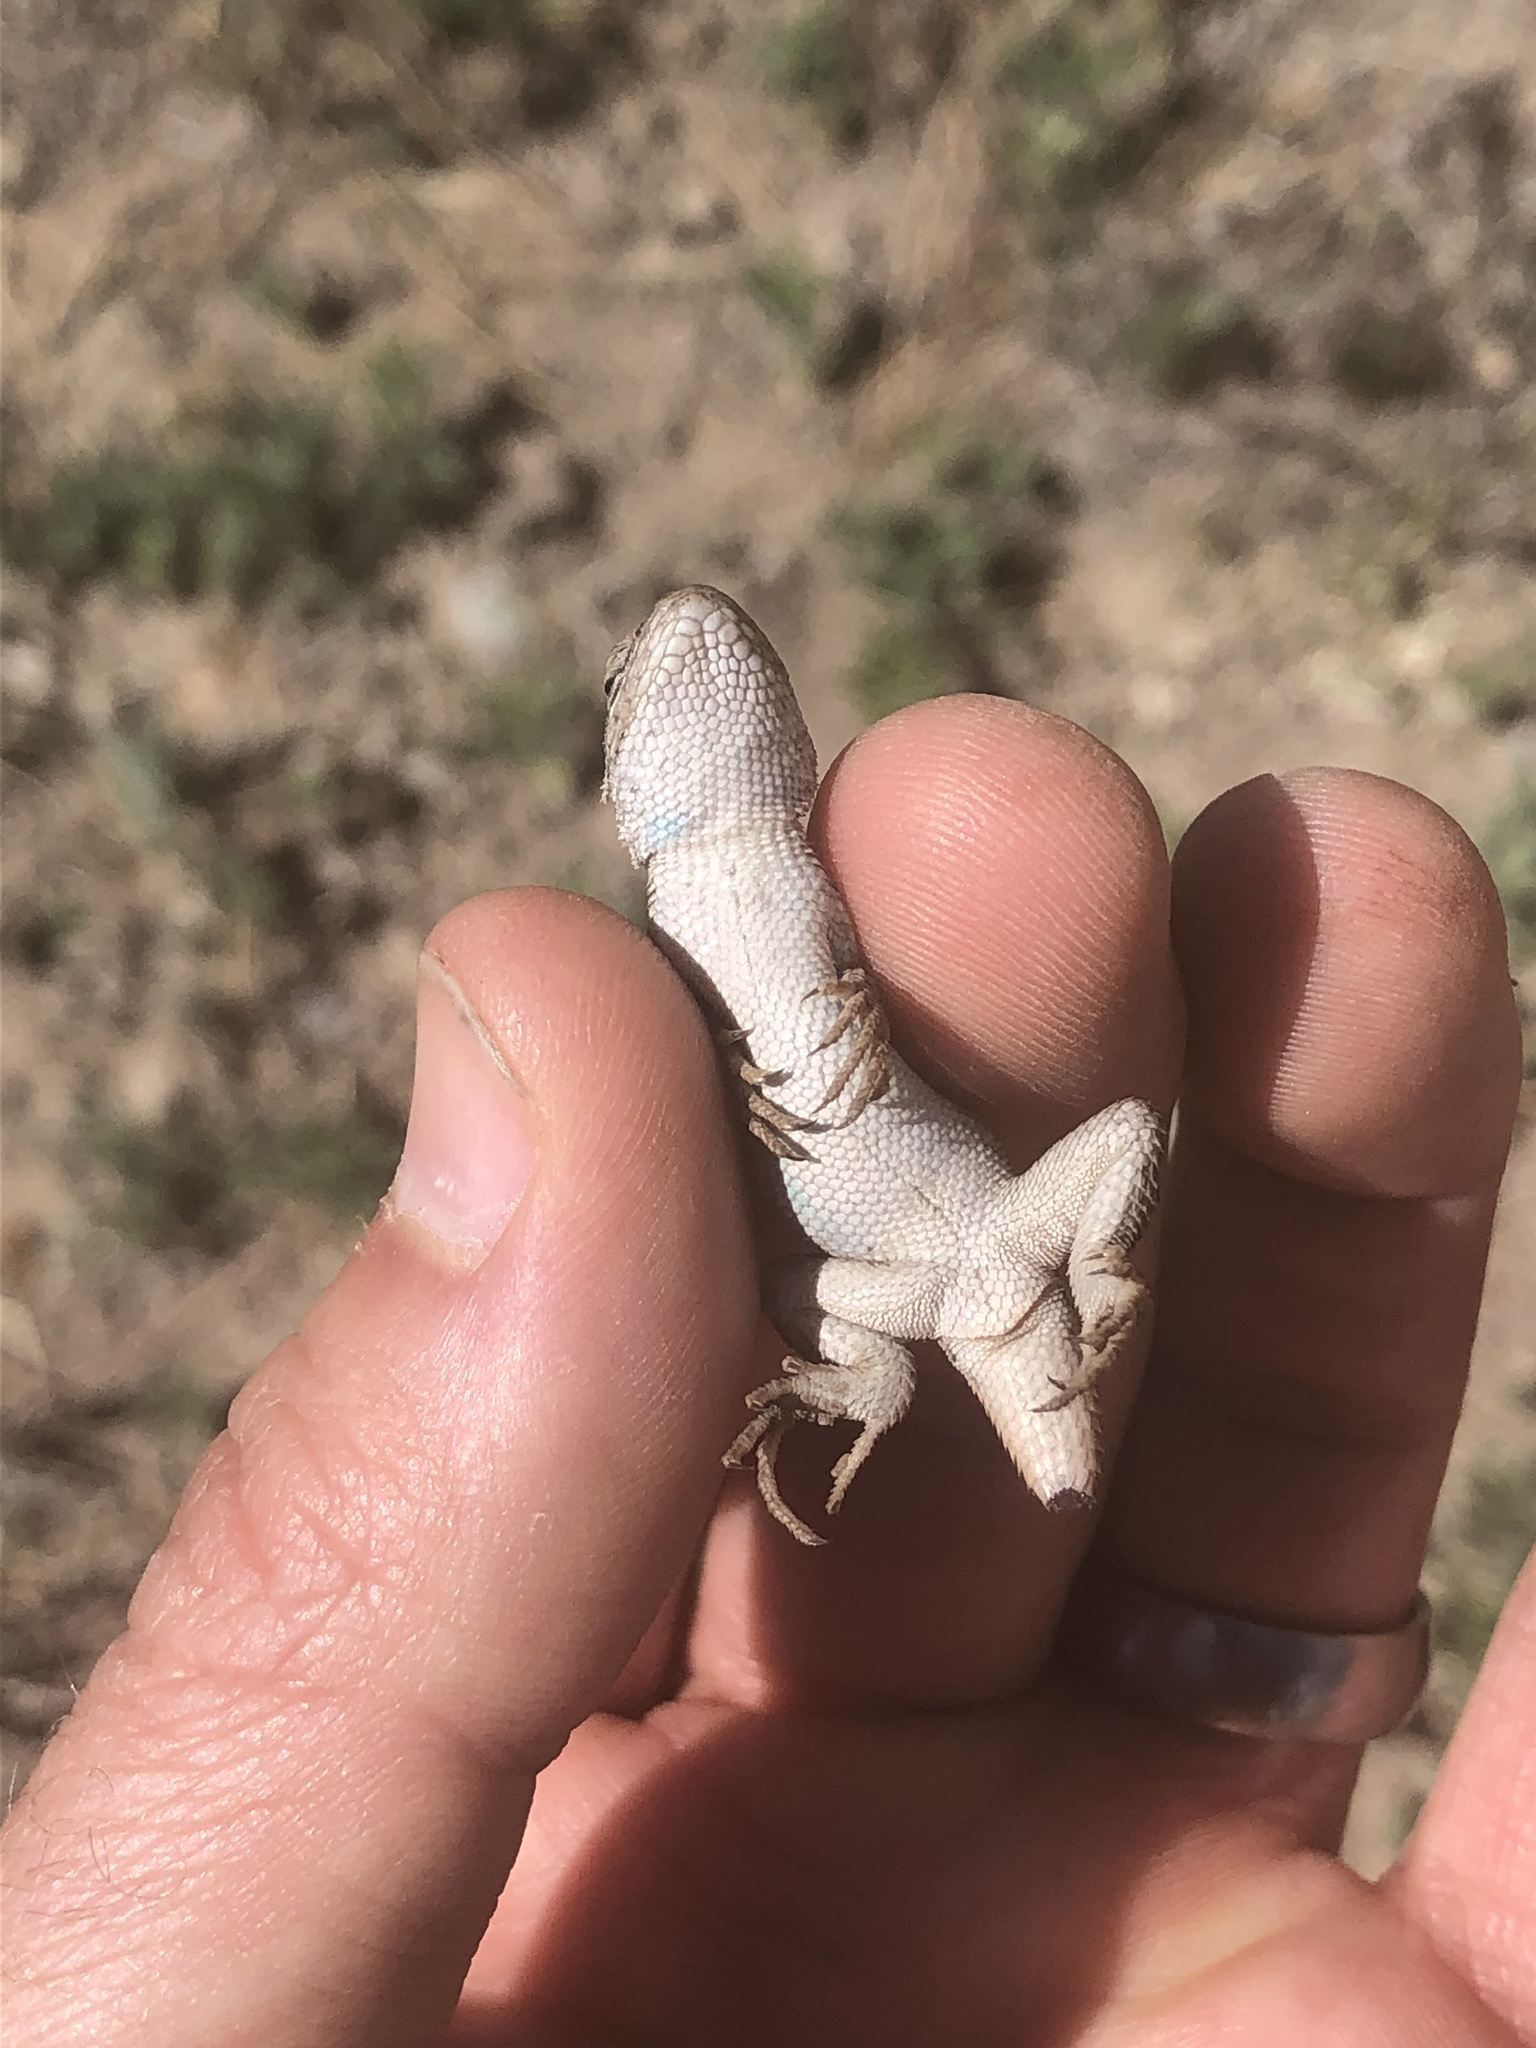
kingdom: Animalia
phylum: Chordata
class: Squamata
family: Phrynosomatidae
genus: Sceloporus
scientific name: Sceloporus
